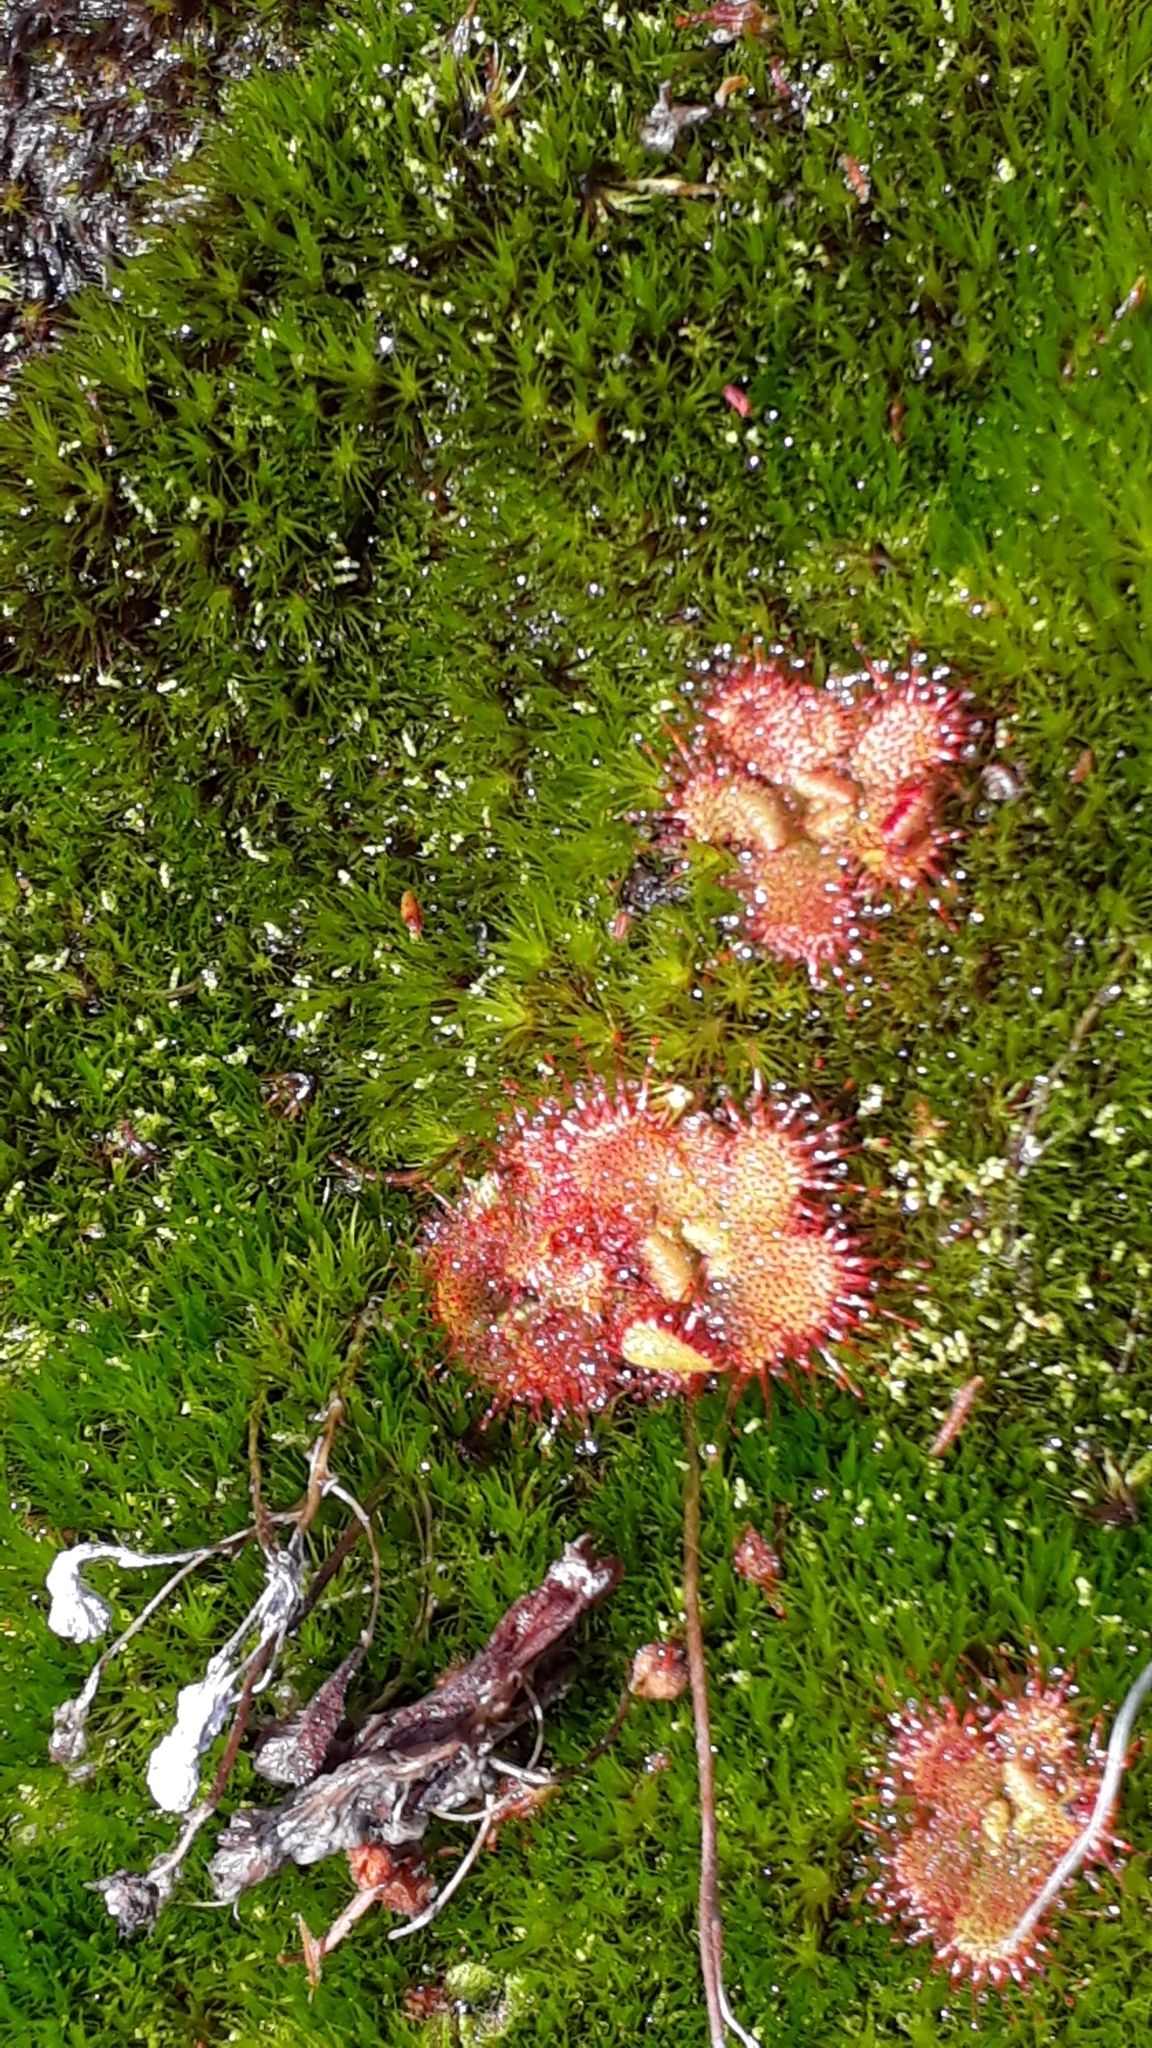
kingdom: Plantae
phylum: Tracheophyta
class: Magnoliopsida
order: Caryophyllales
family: Droseraceae
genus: Drosera
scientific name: Drosera trinervia
